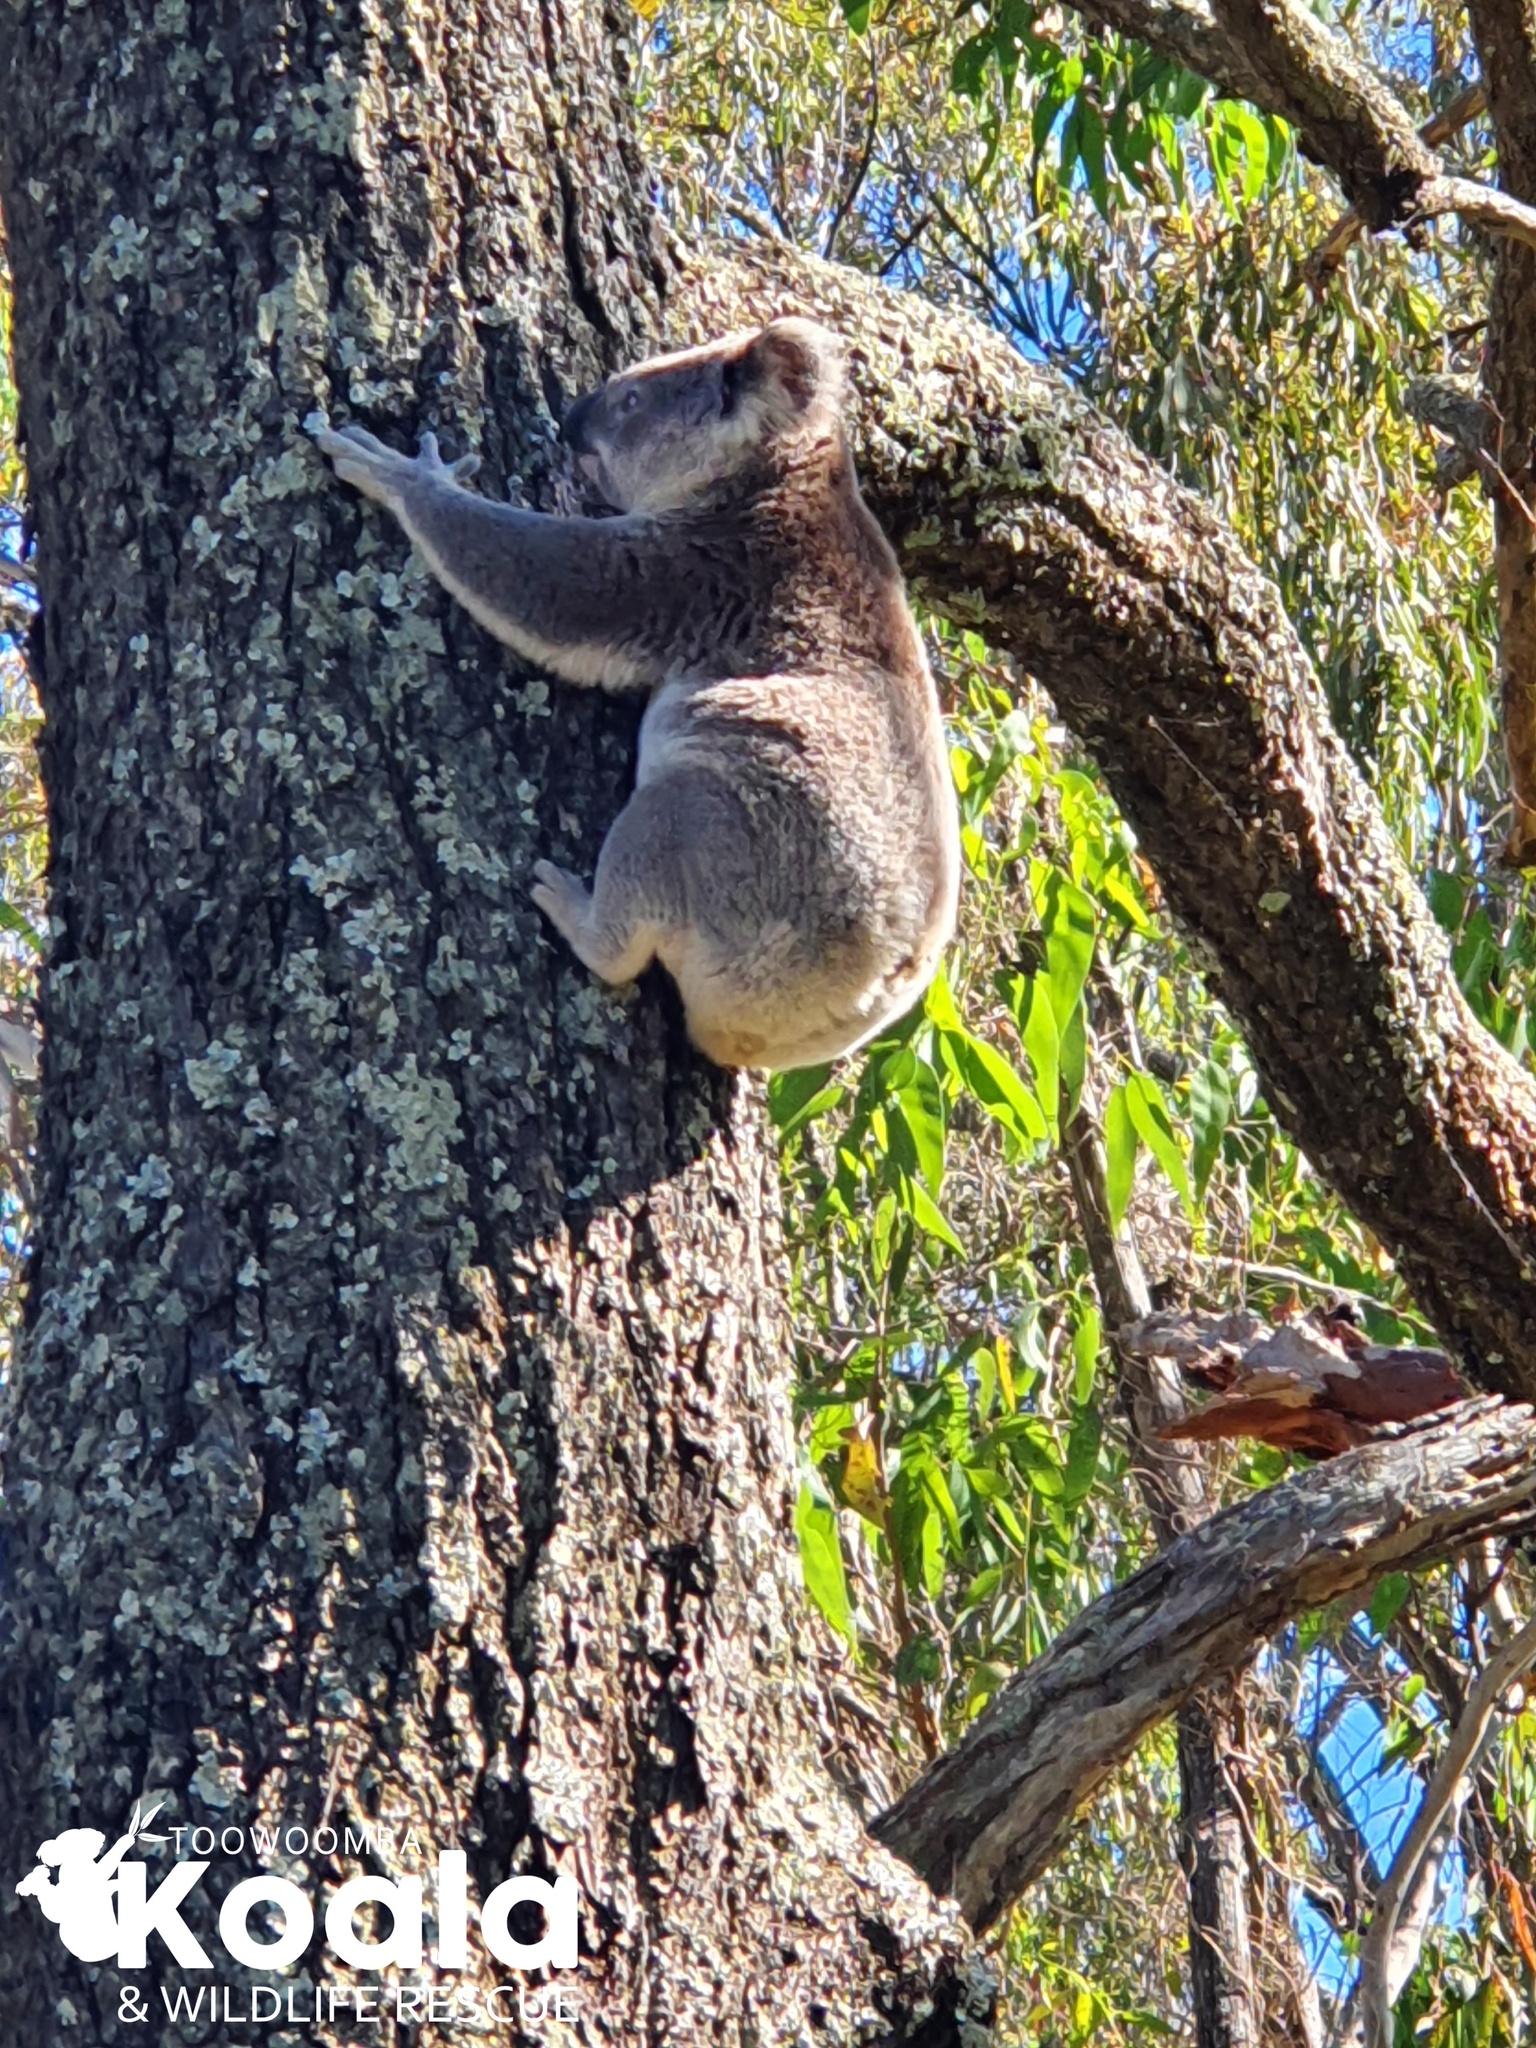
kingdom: Animalia
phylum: Chordata
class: Mammalia
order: Diprotodontia
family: Phascolarctidae
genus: Phascolarctos
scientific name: Phascolarctos cinereus
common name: Koala
